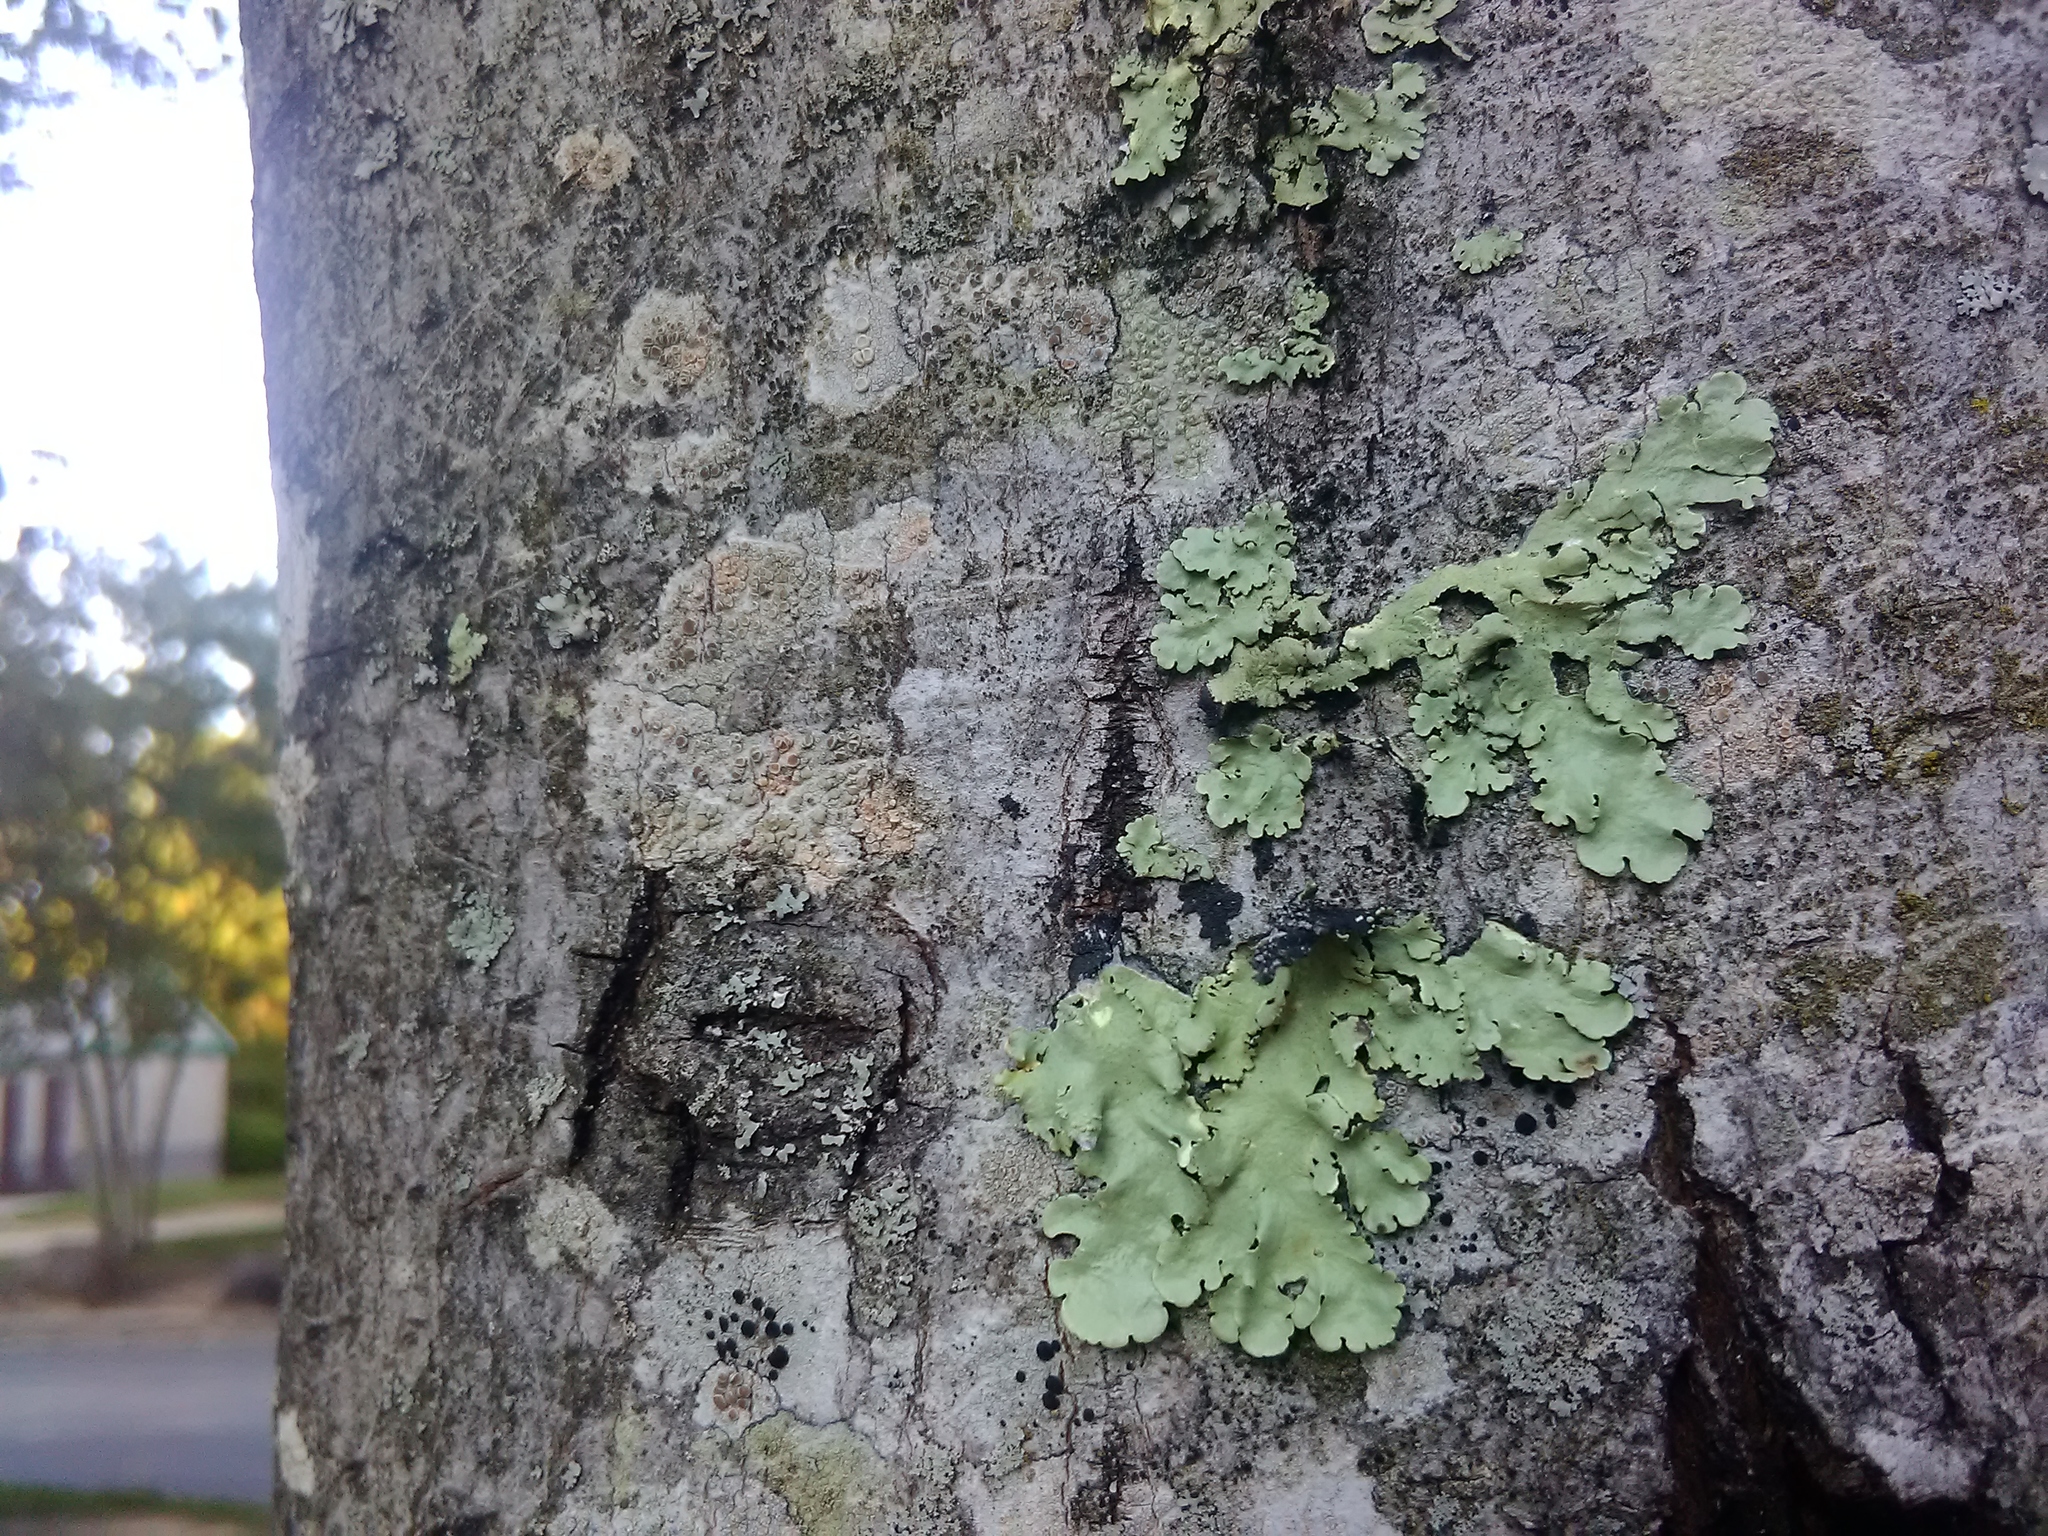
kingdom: Fungi
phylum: Ascomycota
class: Lecanoromycetes
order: Lecanorales
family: Parmeliaceae
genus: Flavoparmelia
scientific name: Flavoparmelia caperata
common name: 40-mile per hour lichen
